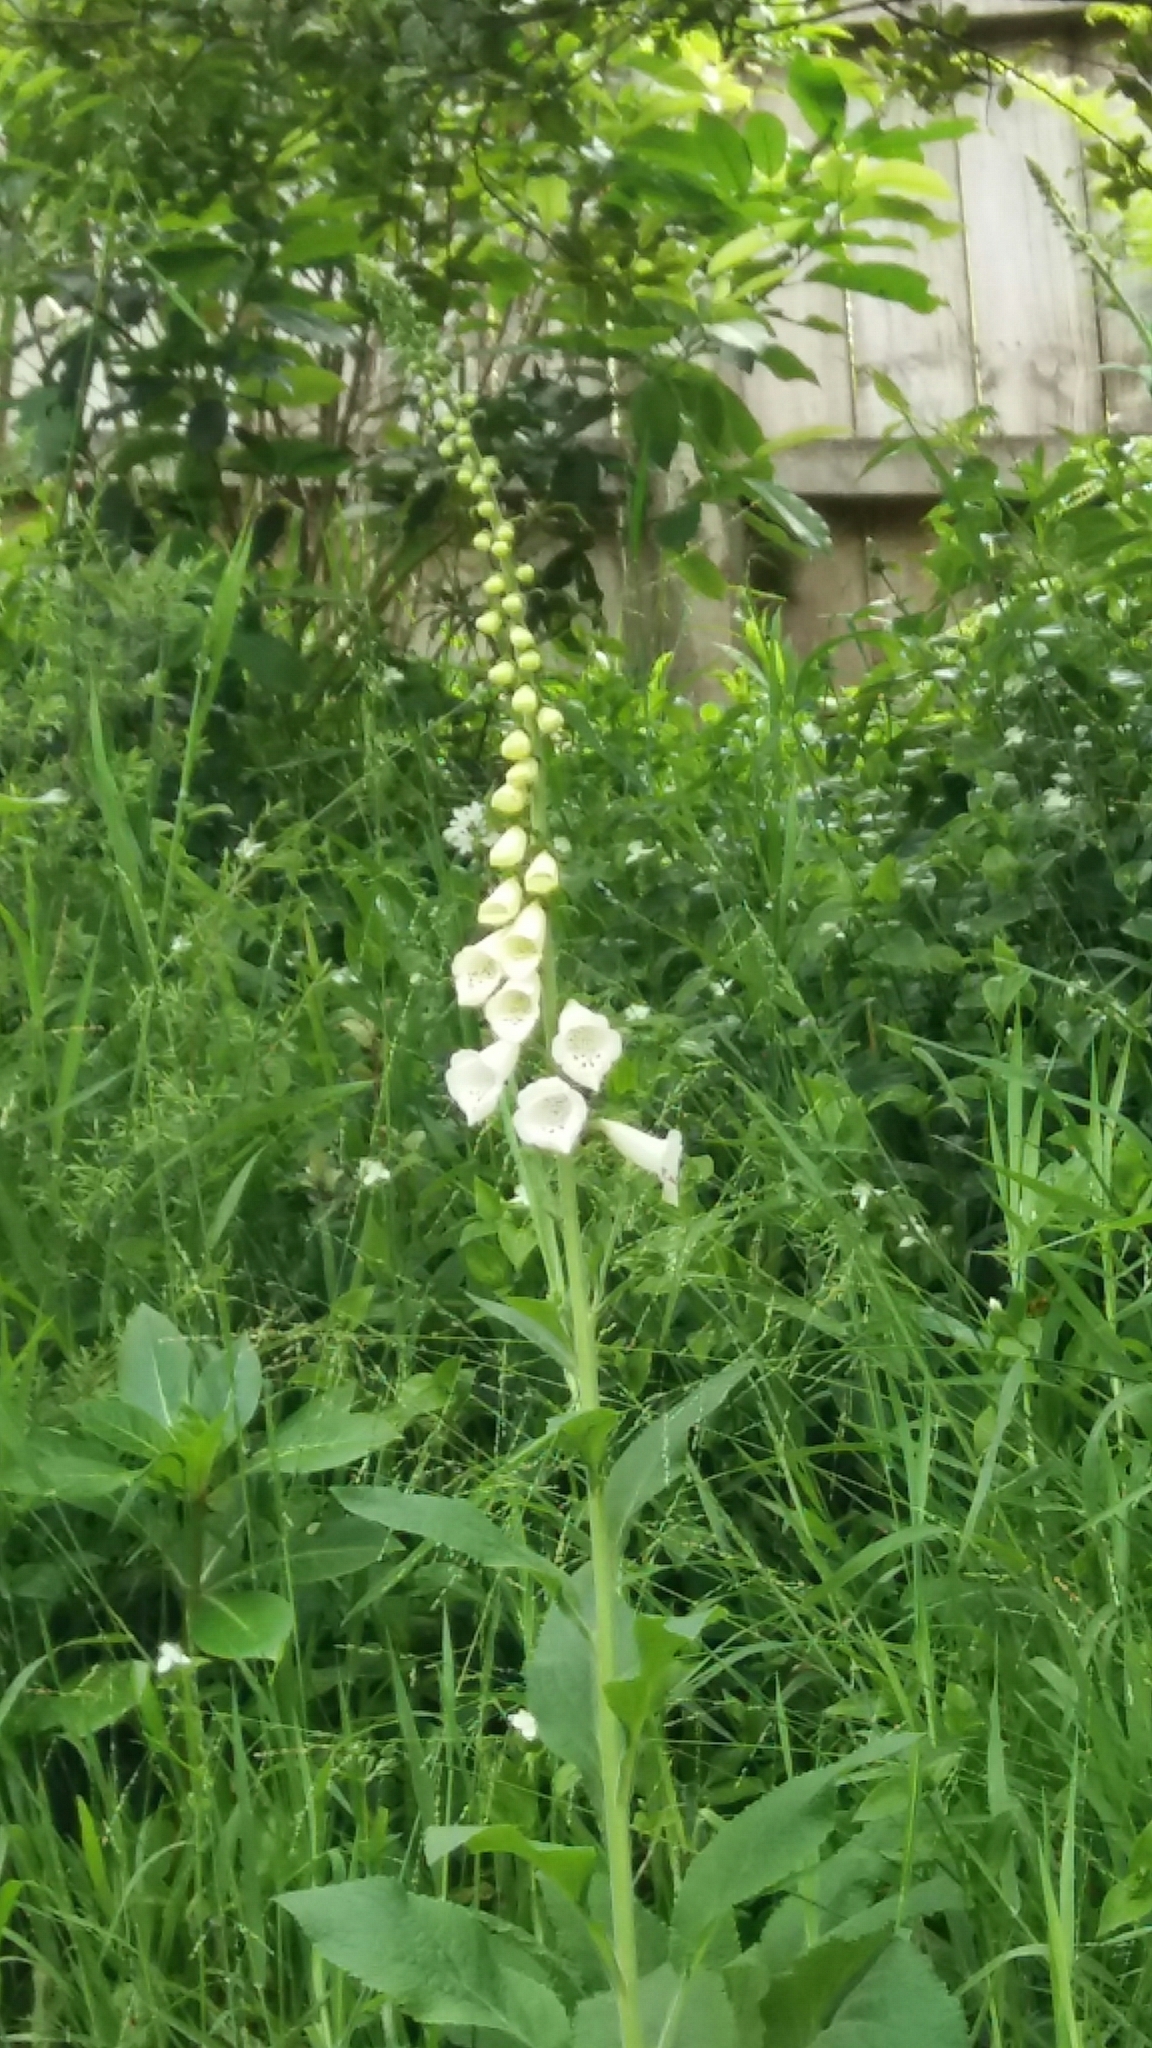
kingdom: Plantae
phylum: Tracheophyta
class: Magnoliopsida
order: Lamiales
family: Plantaginaceae
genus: Digitalis
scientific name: Digitalis purpurea
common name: Foxglove
